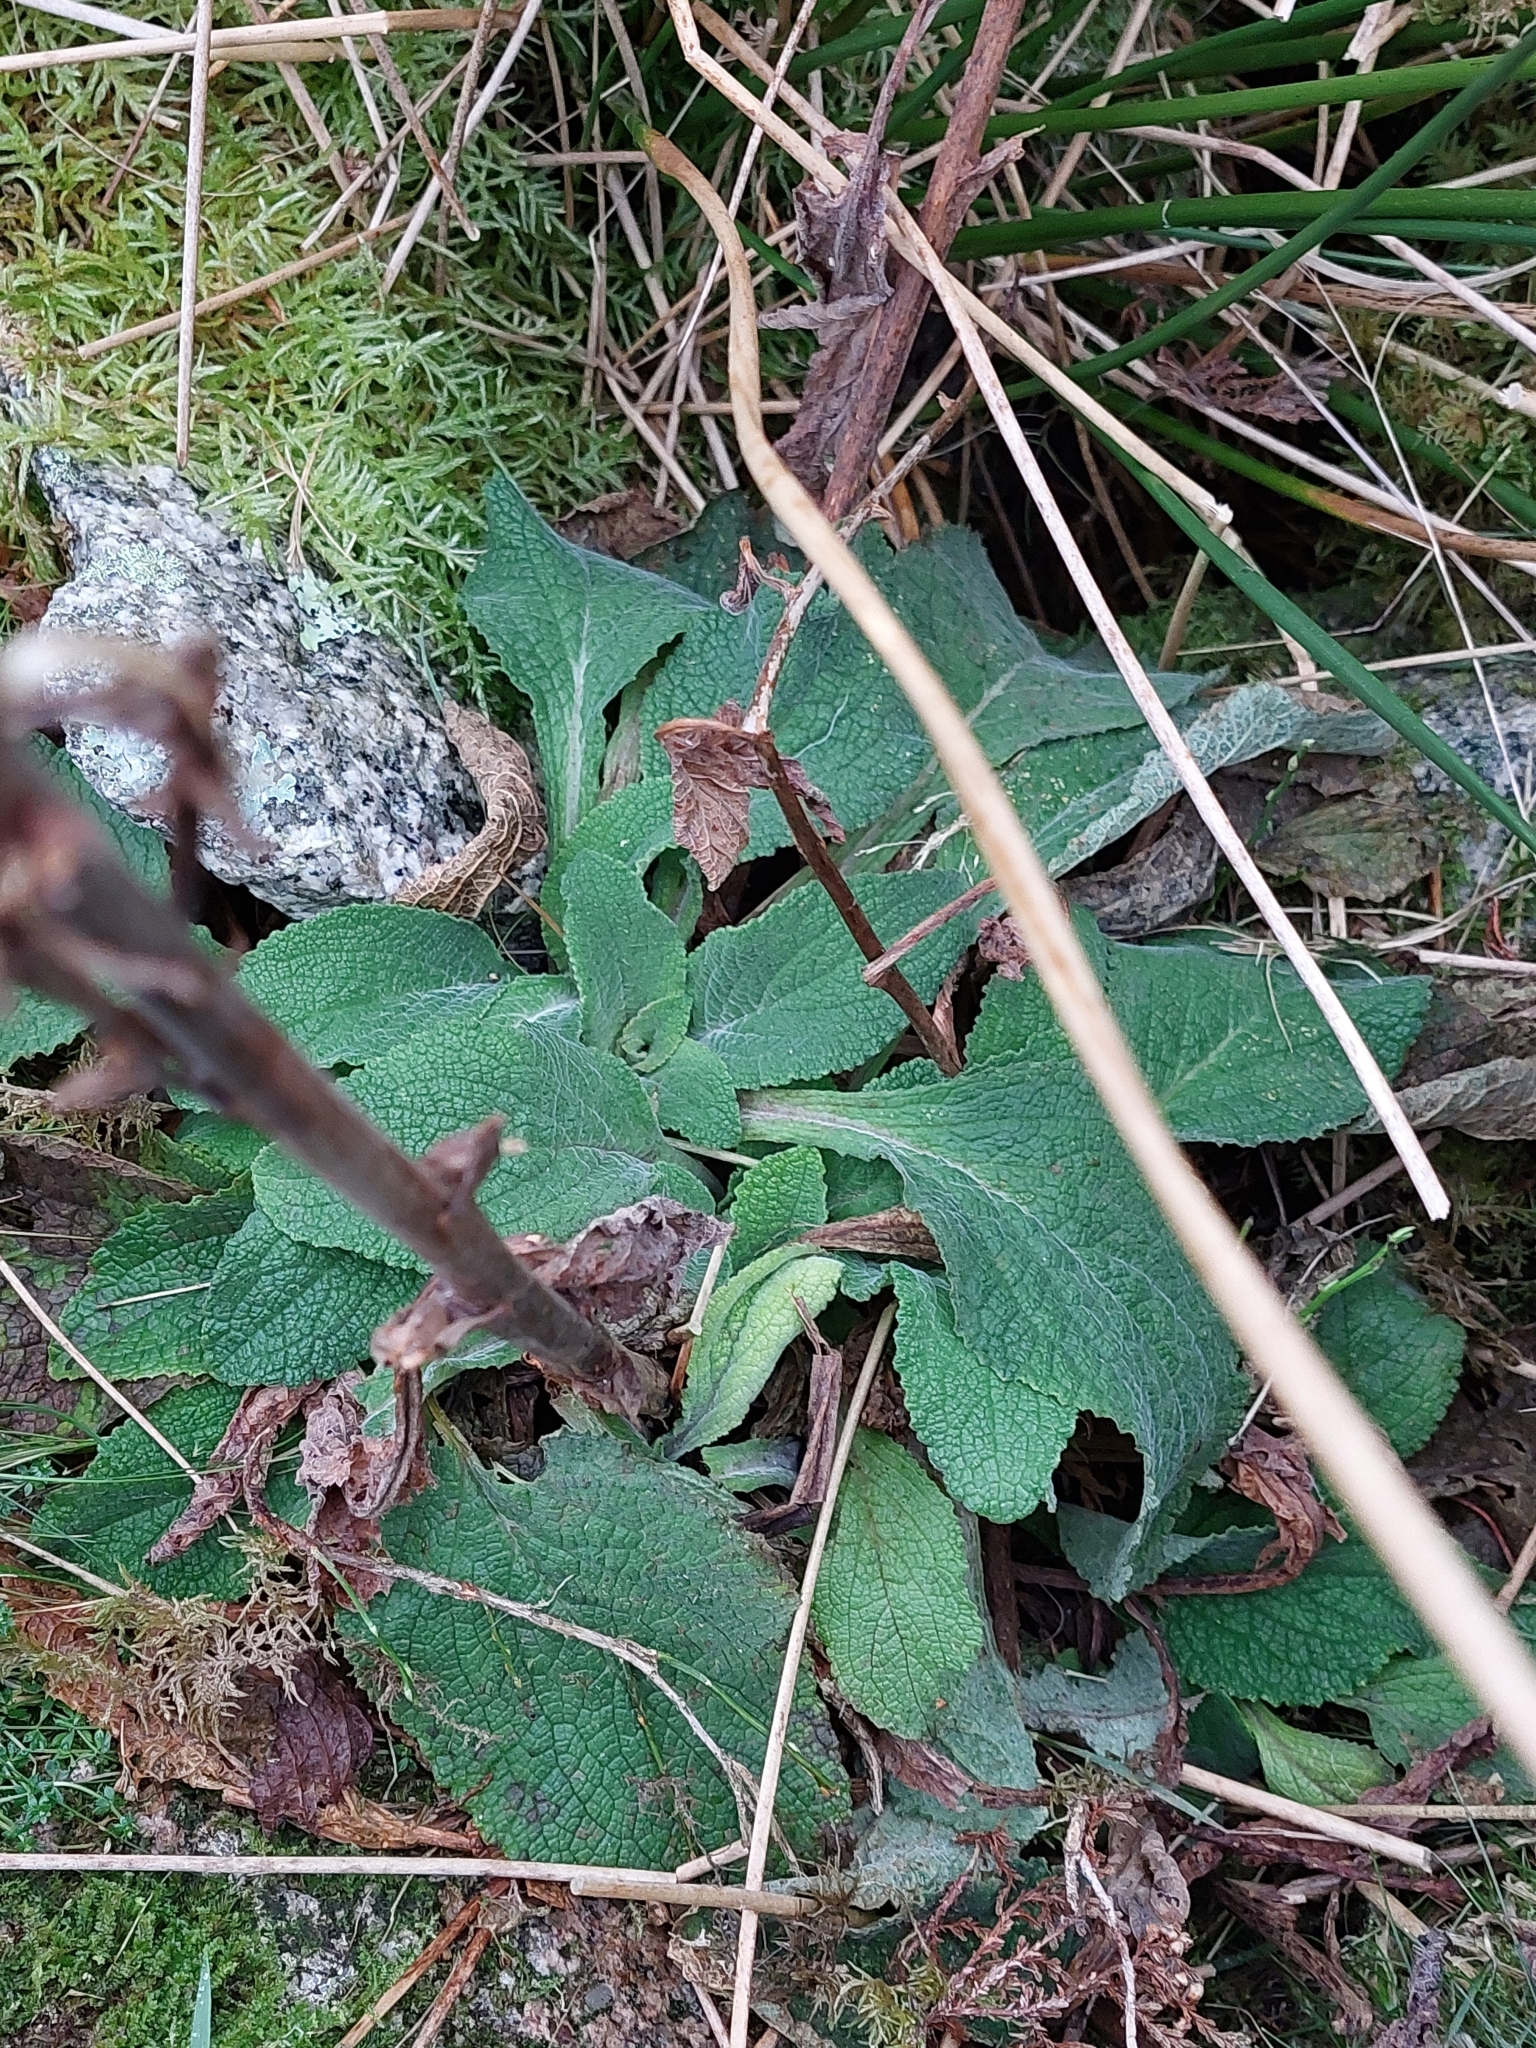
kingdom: Plantae
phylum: Tracheophyta
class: Magnoliopsida
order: Lamiales
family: Plantaginaceae
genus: Digitalis
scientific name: Digitalis purpurea
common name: Foxglove
